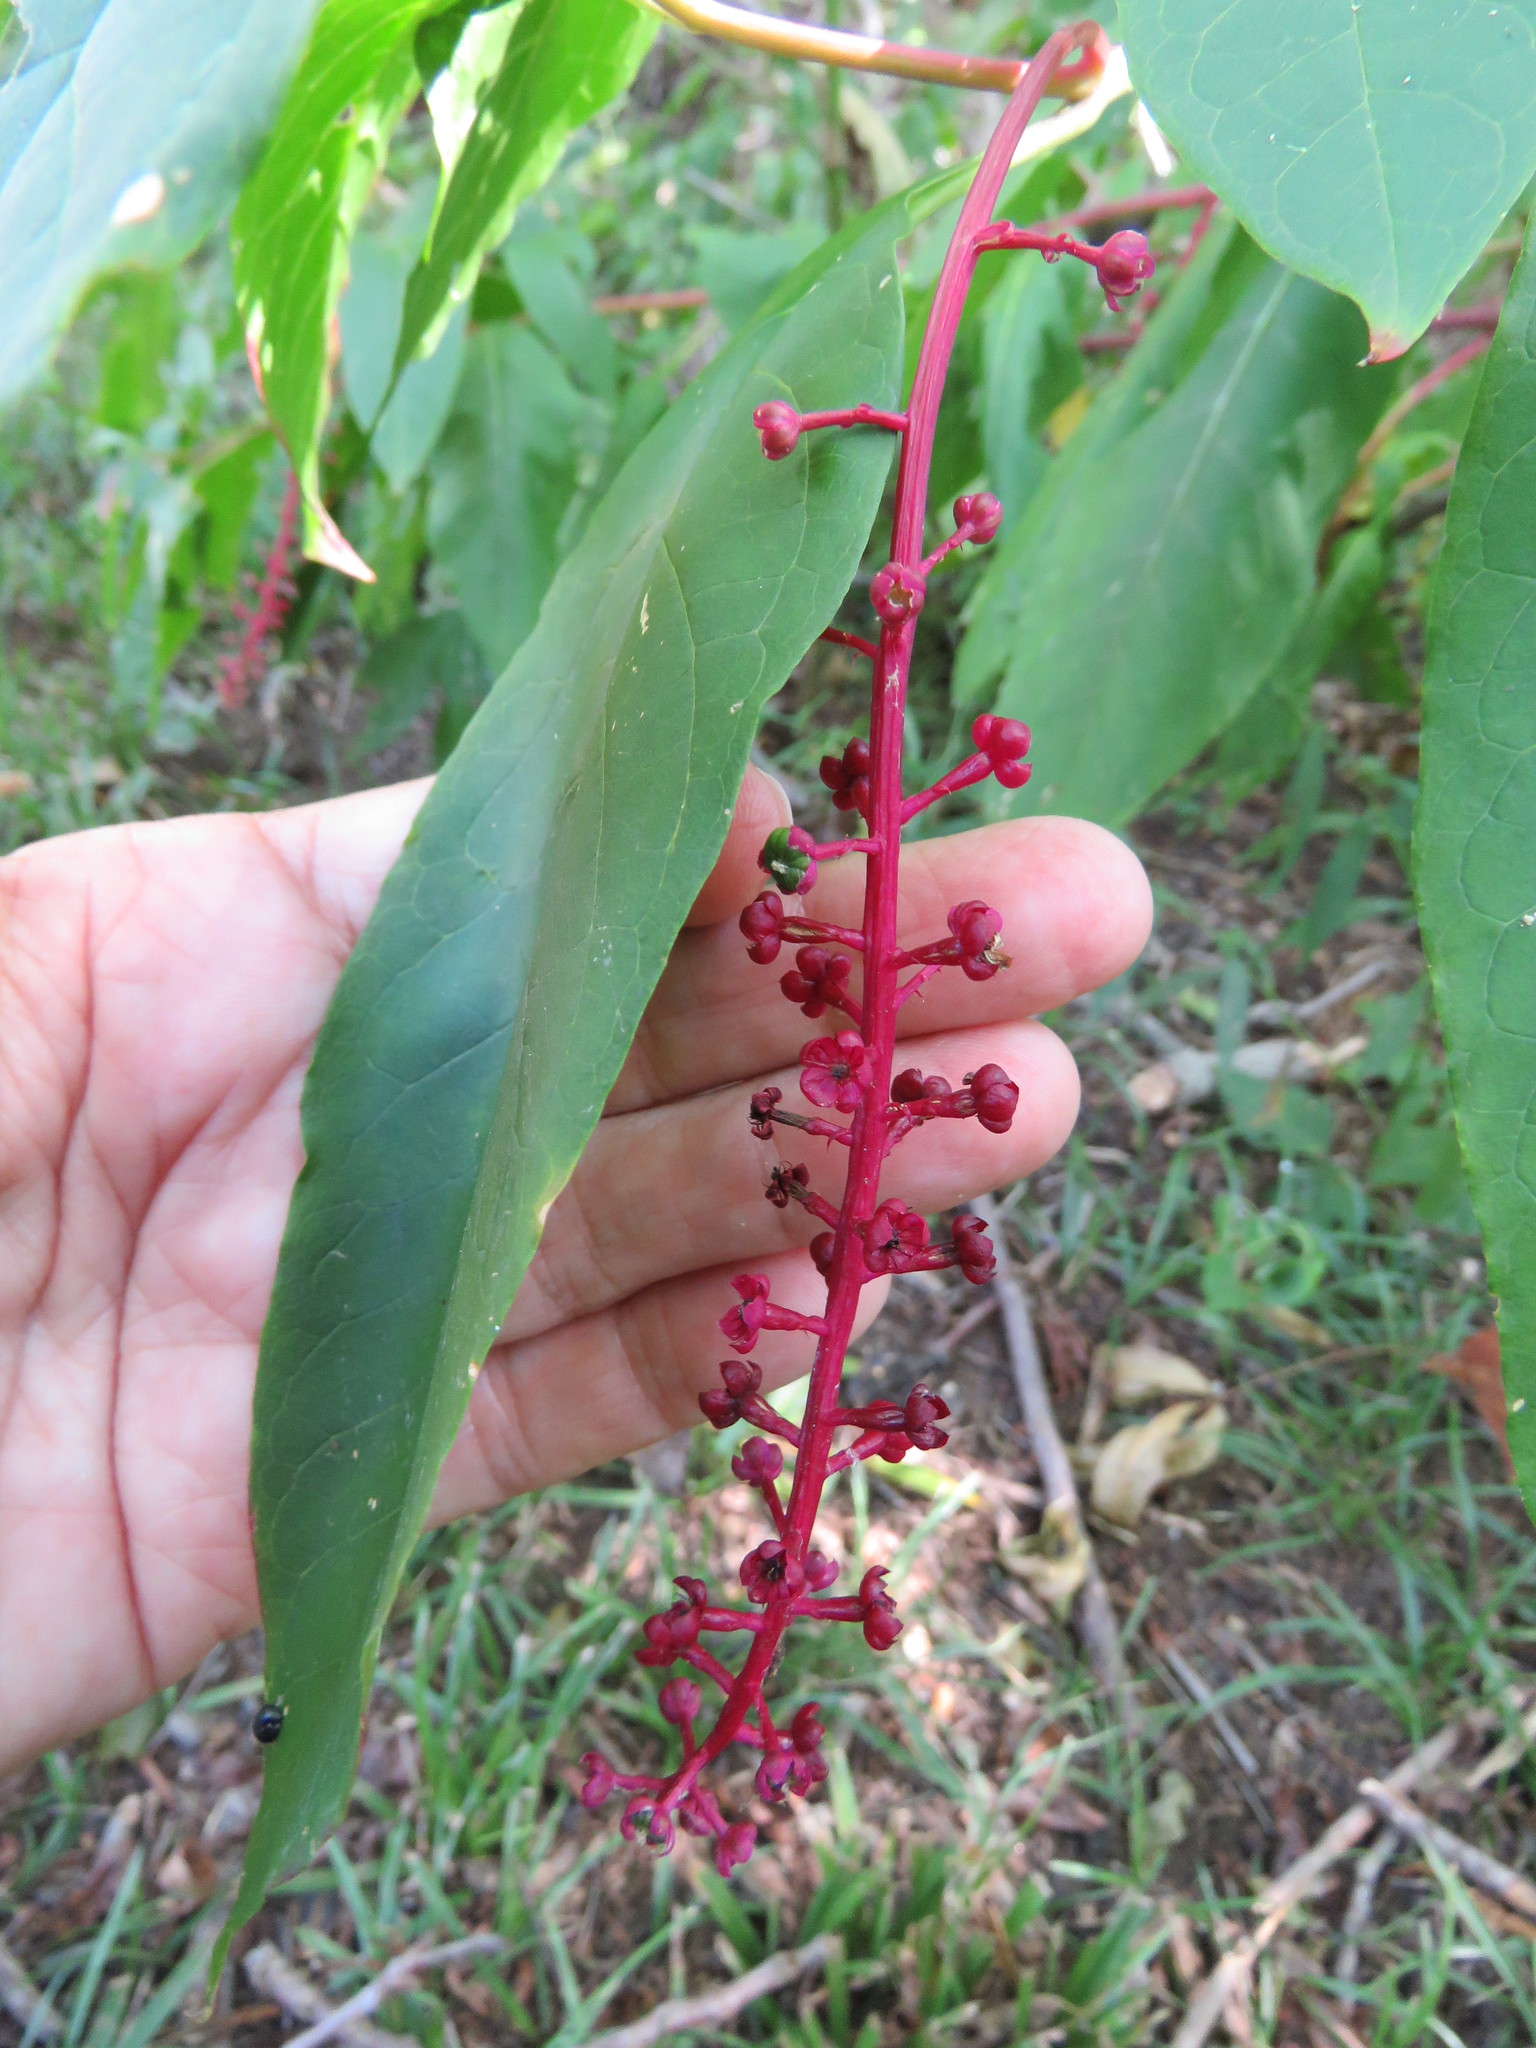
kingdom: Plantae
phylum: Tracheophyta
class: Magnoliopsida
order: Caryophyllales
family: Phytolaccaceae
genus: Phytolacca
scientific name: Phytolacca americana
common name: American pokeweed
